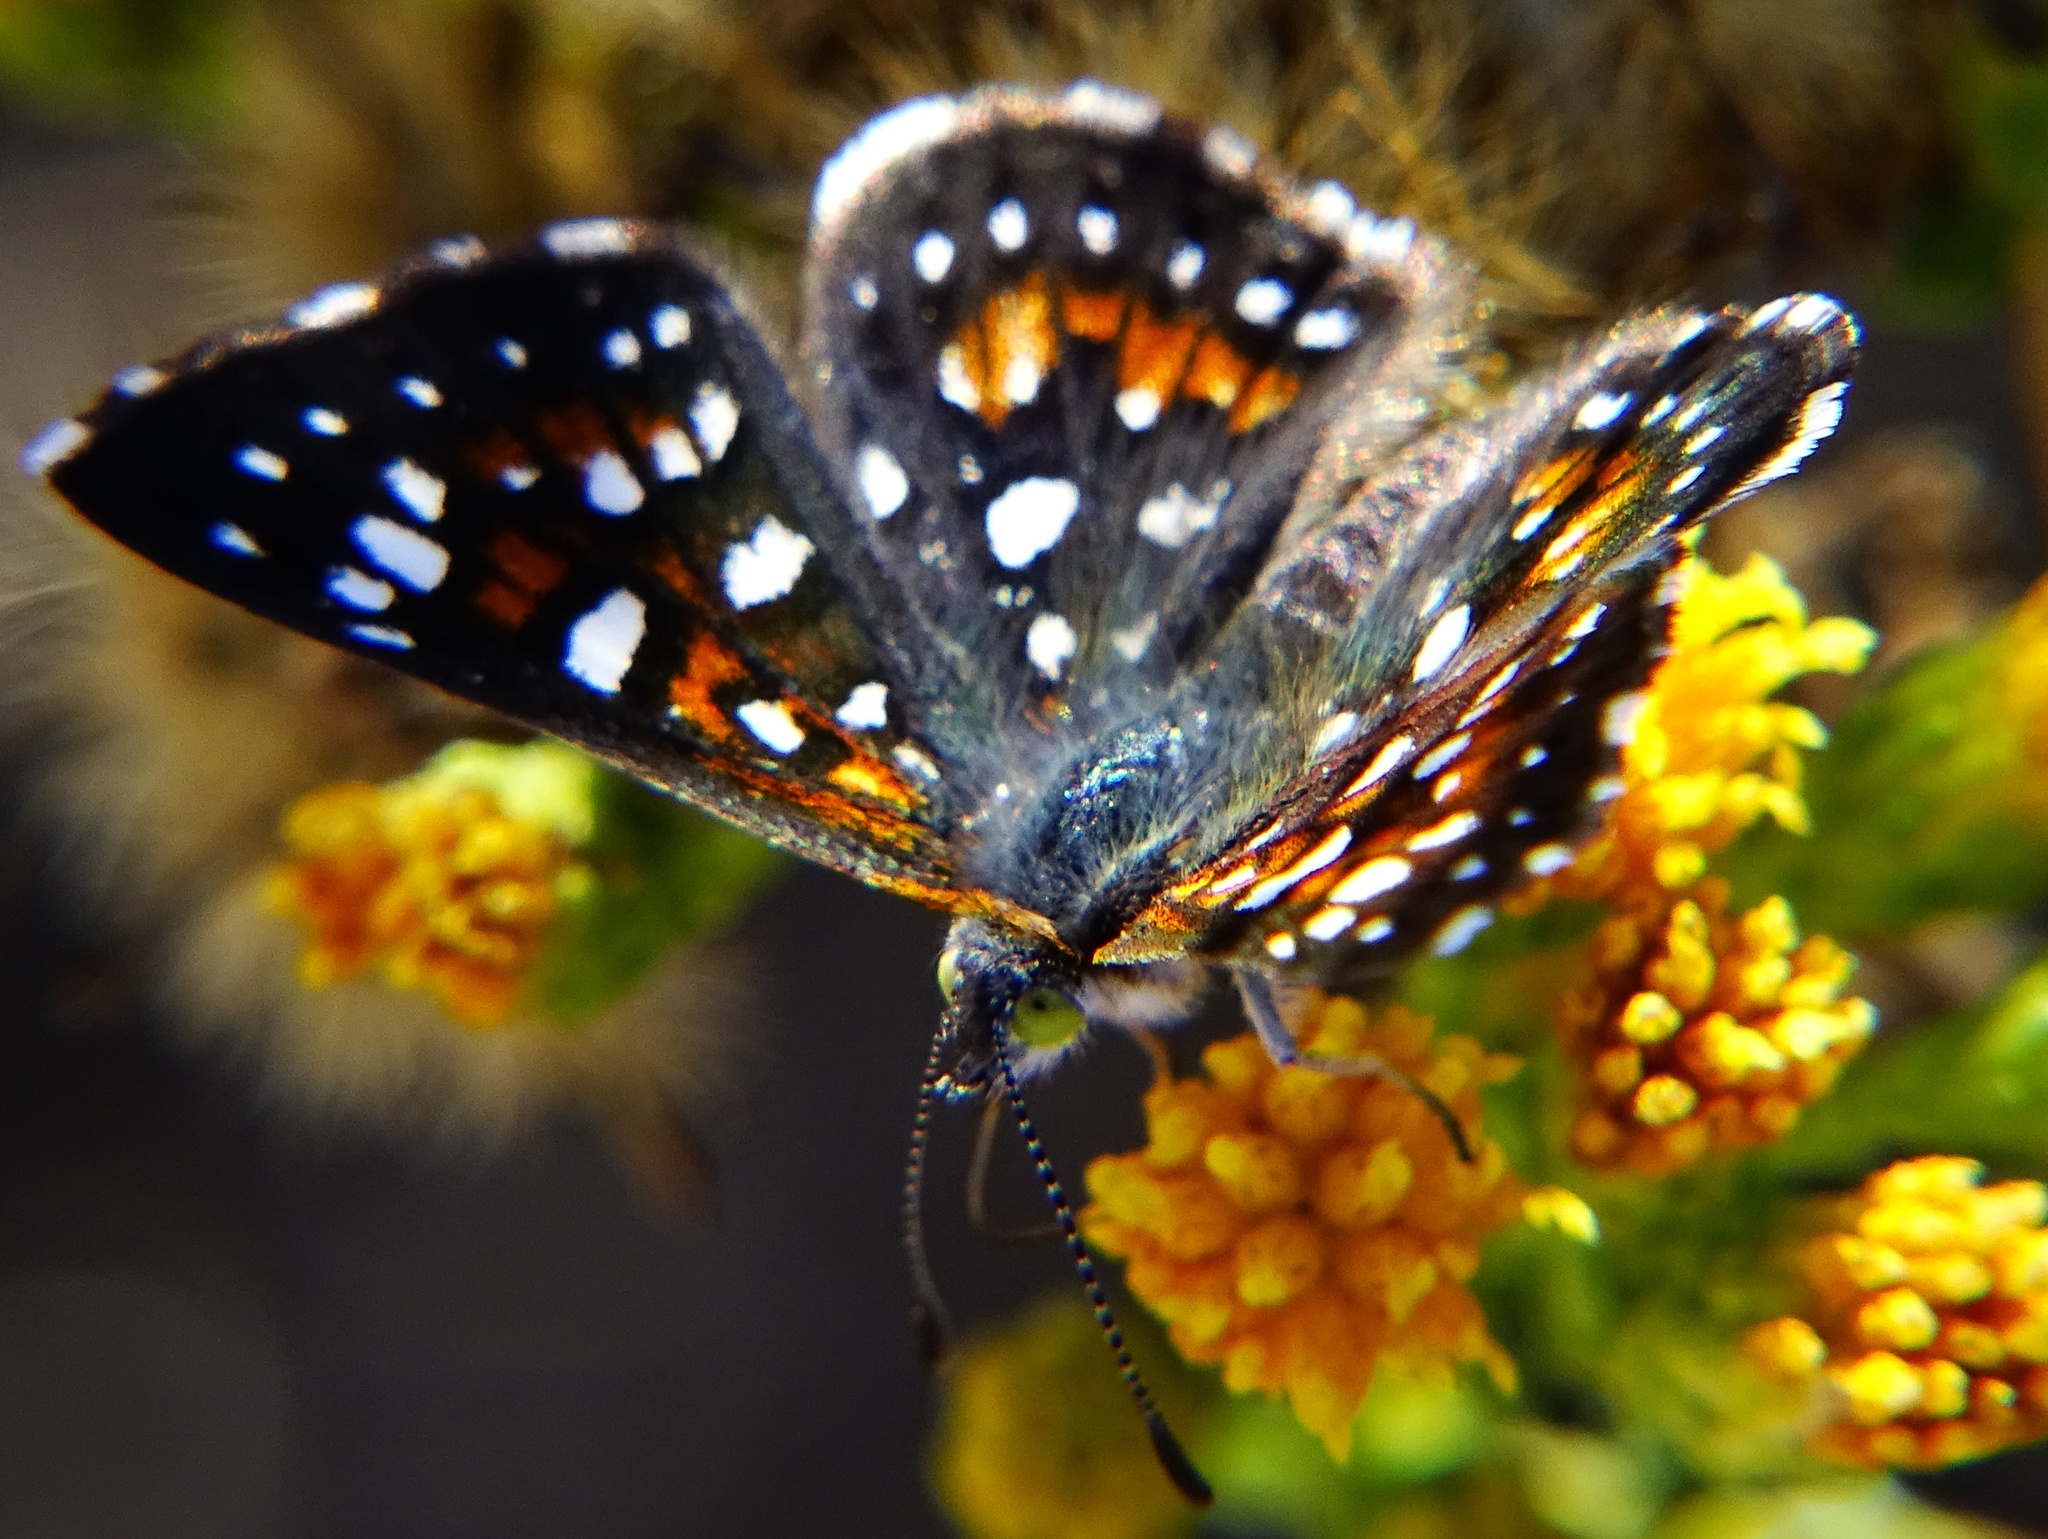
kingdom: Animalia
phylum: Arthropoda
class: Insecta
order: Lepidoptera
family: Riodinidae
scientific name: Riodinidae
